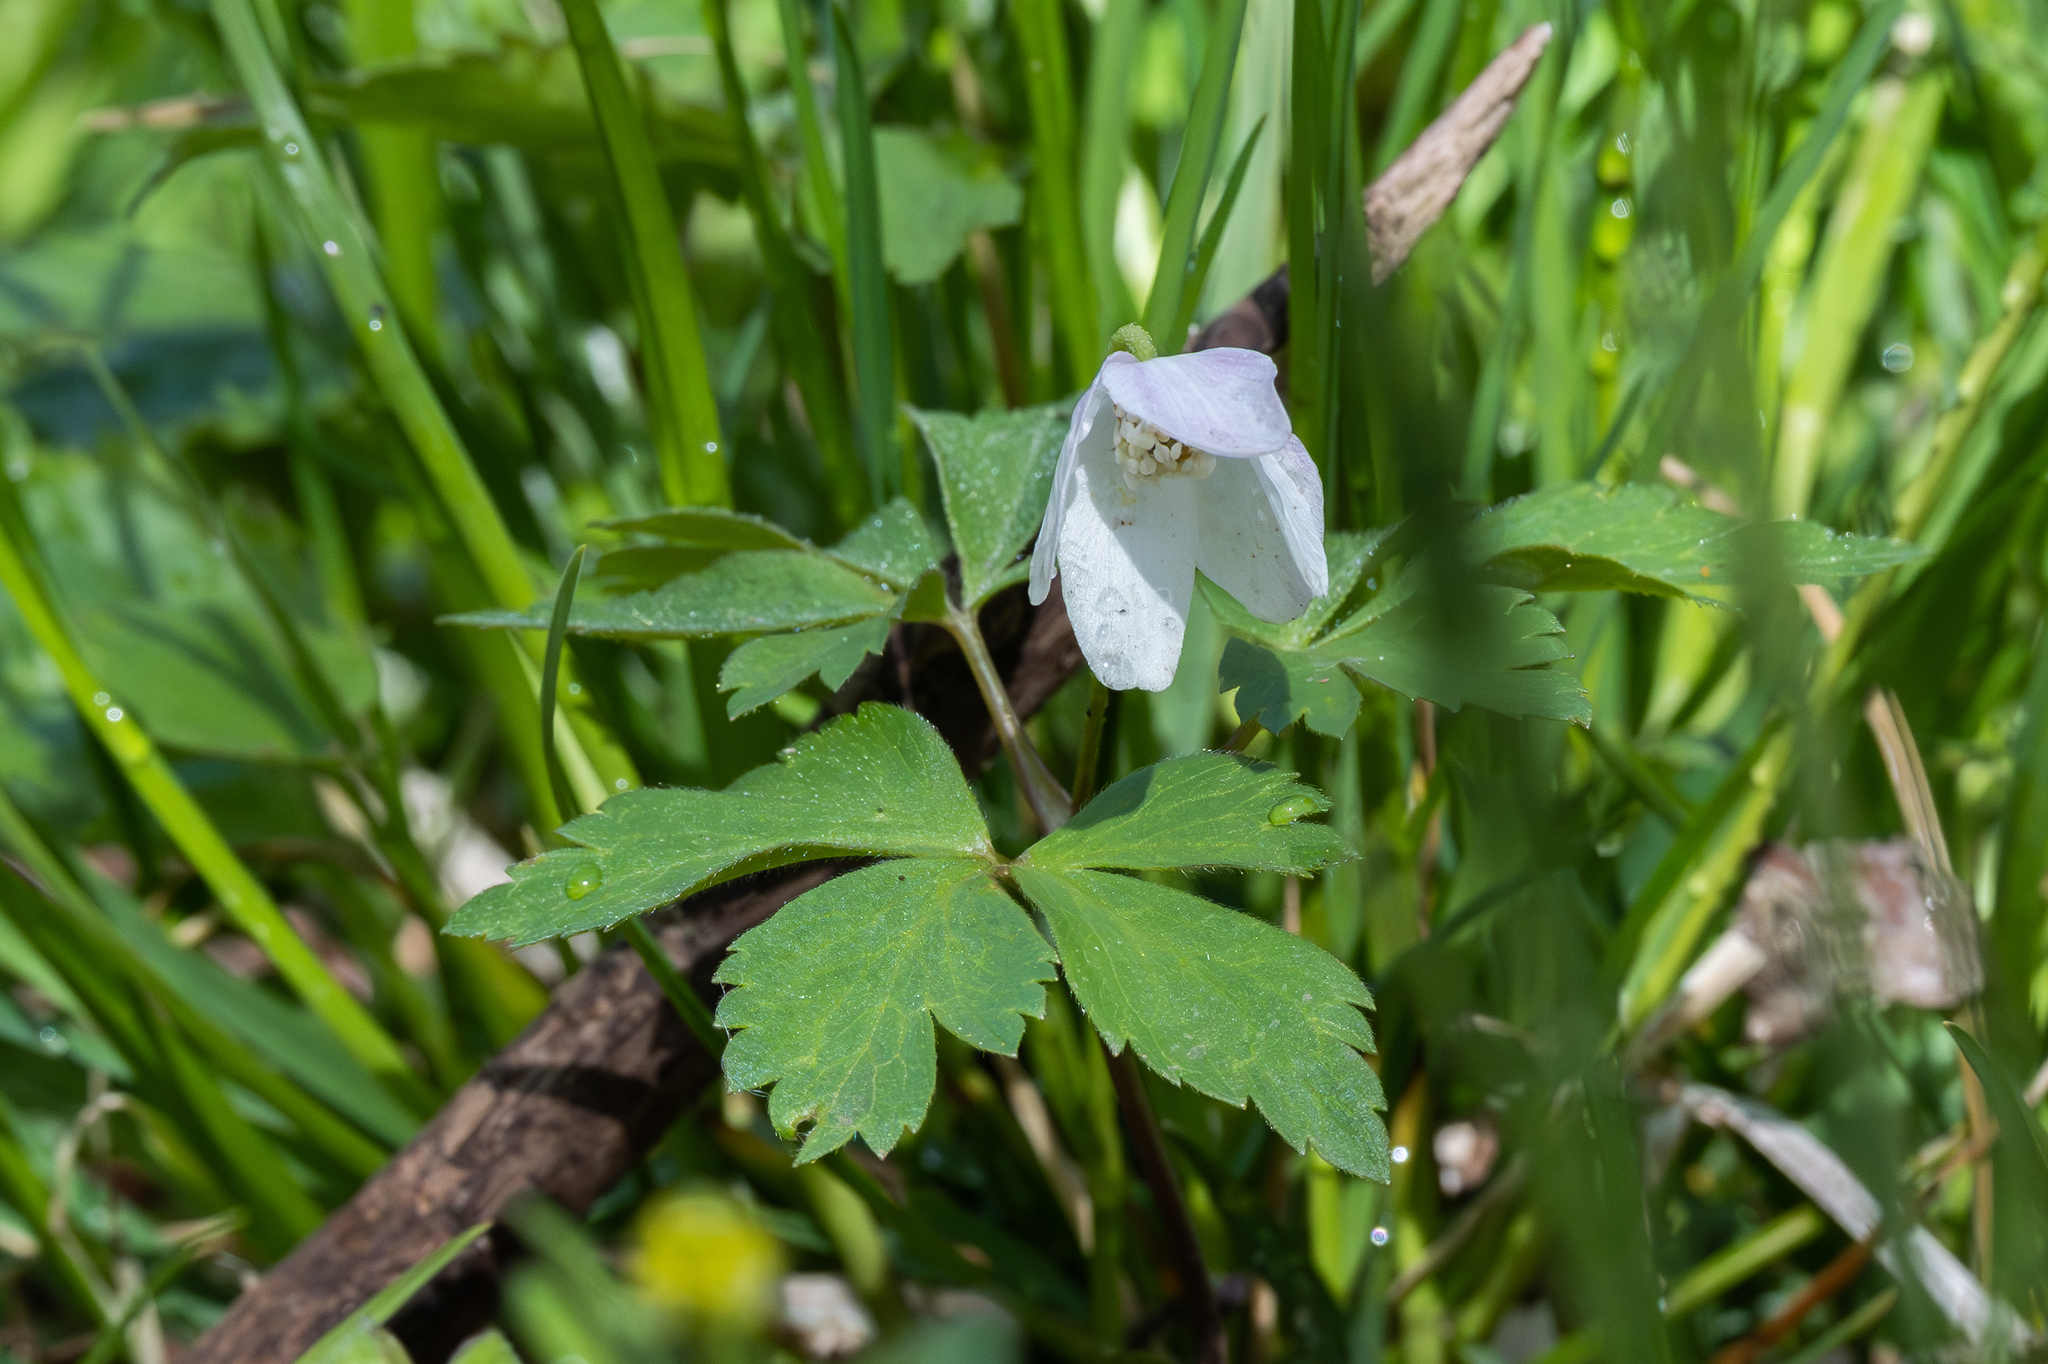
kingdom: Plantae
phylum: Tracheophyta
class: Magnoliopsida
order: Ranunculales
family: Ranunculaceae
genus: Anemone
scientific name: Anemone quinquefolia
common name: Wood anemone
